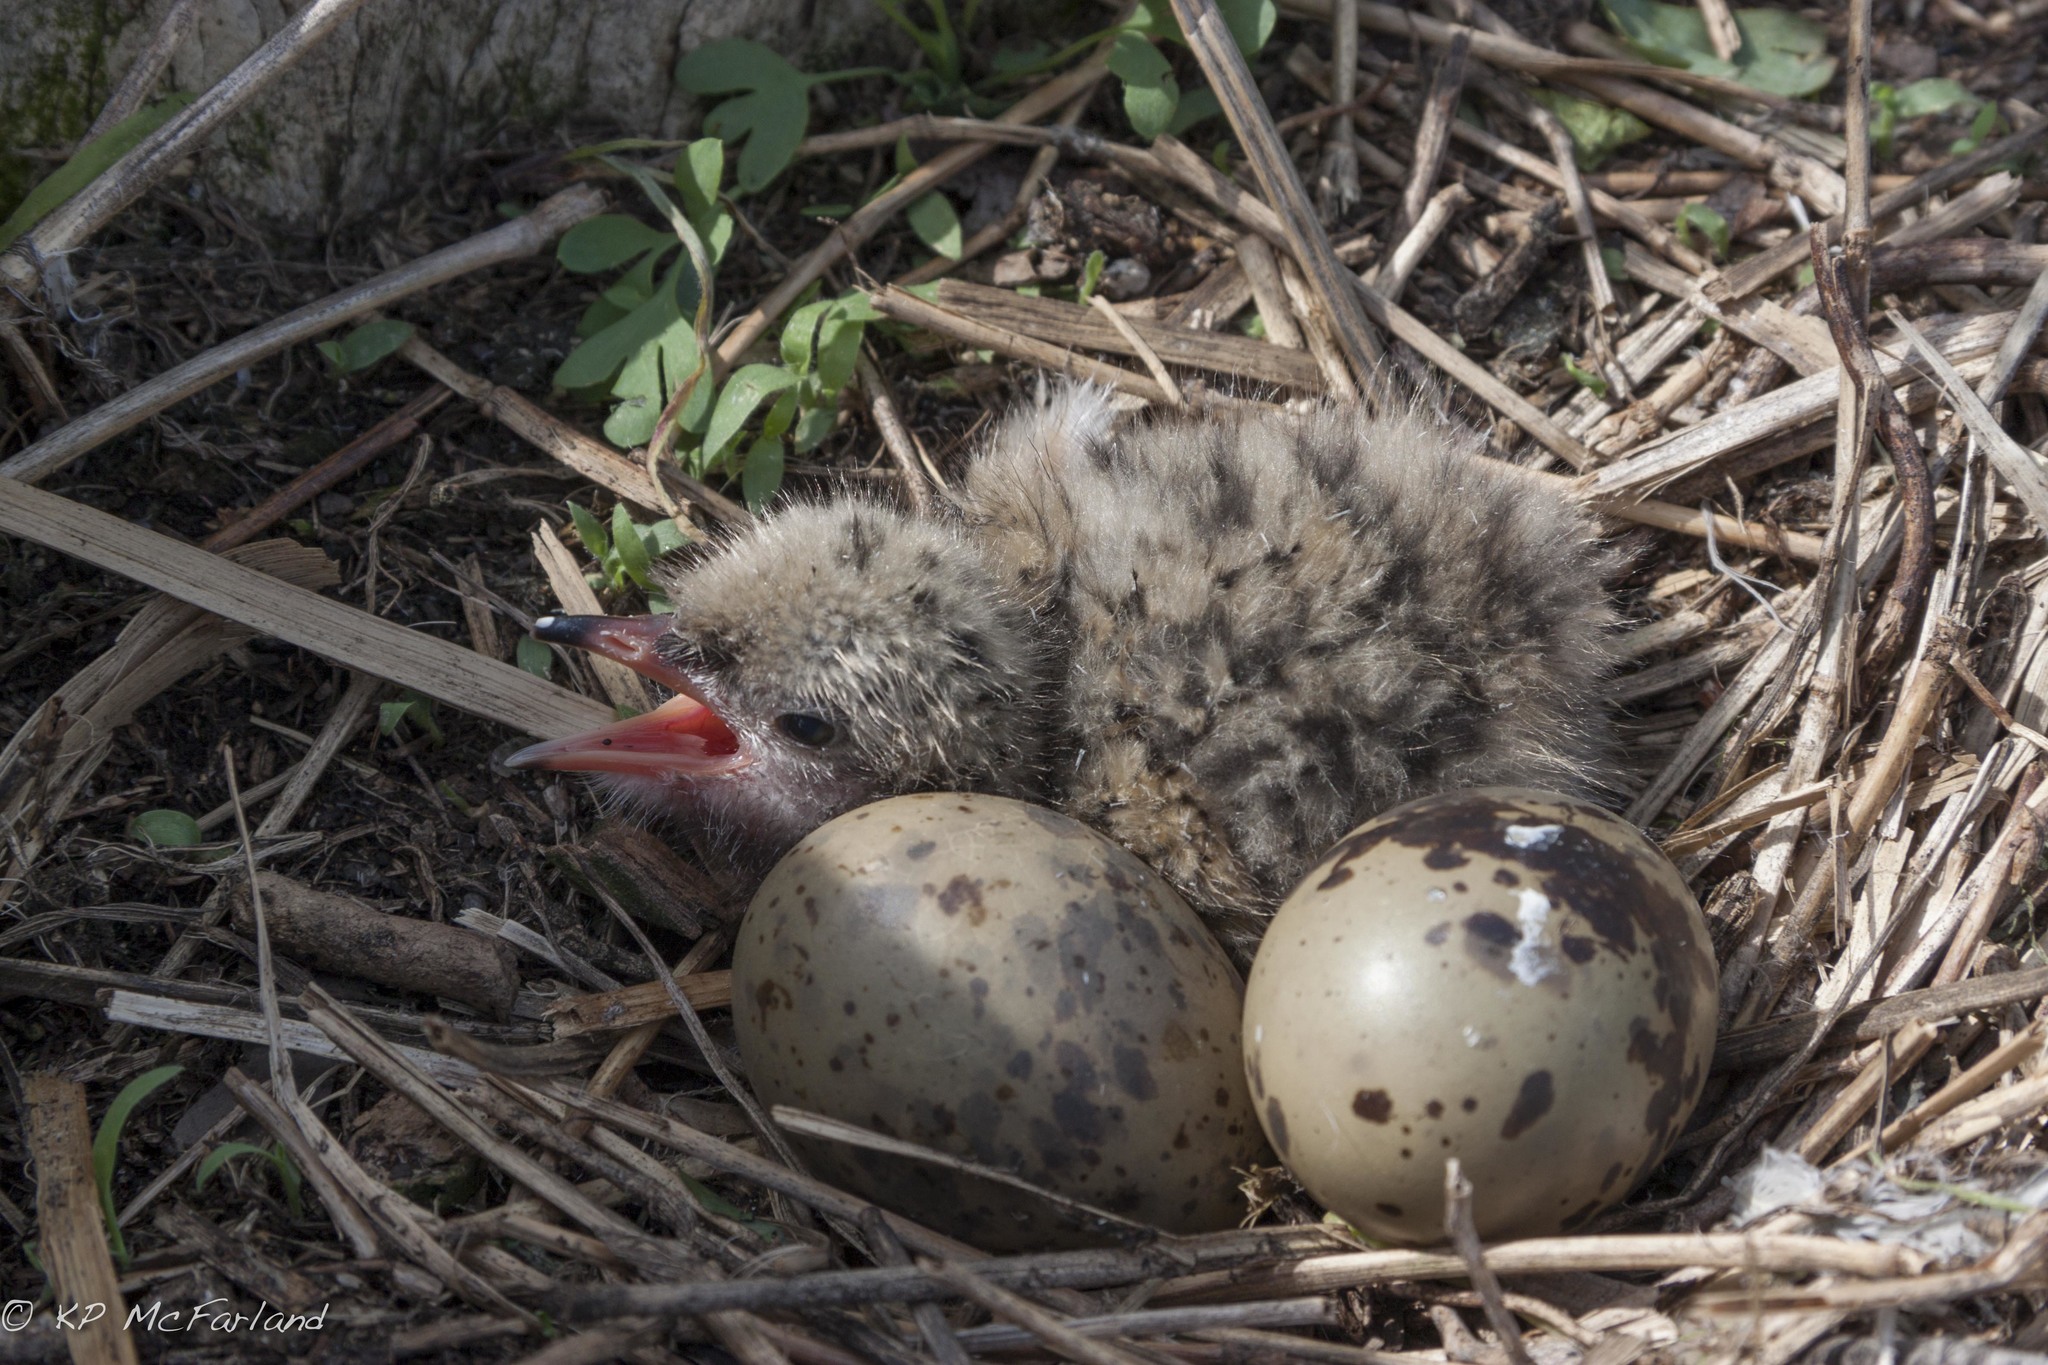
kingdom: Animalia
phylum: Chordata
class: Aves
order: Charadriiformes
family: Laridae
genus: Sterna
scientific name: Sterna hirundo
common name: Common tern
